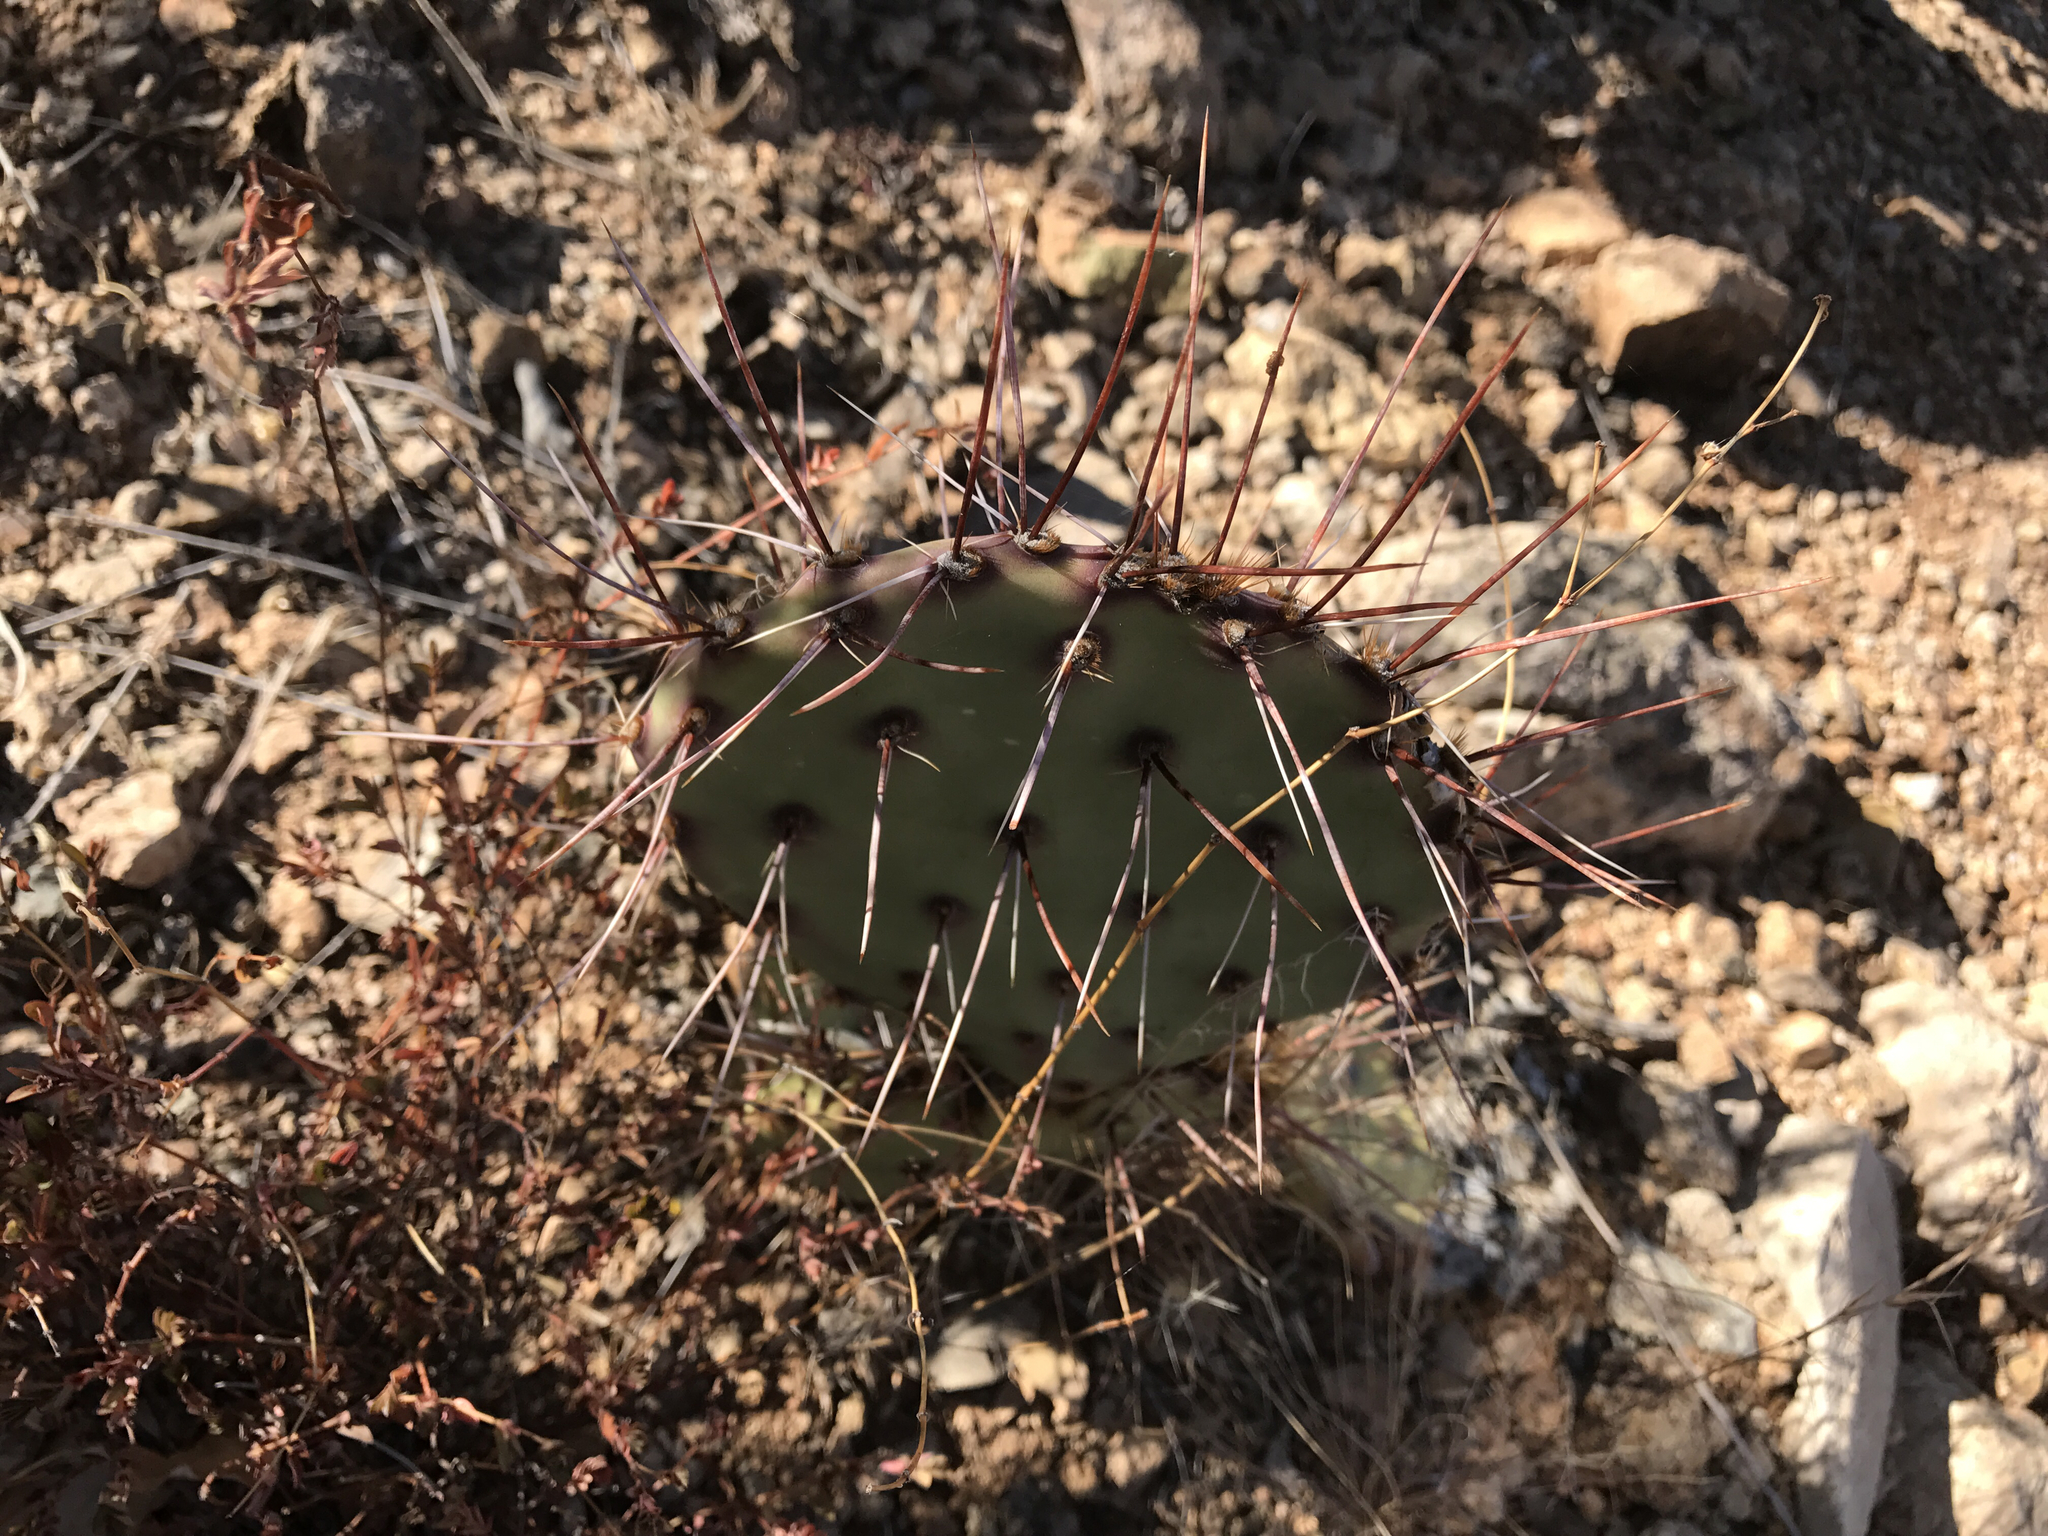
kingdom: Plantae
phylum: Tracheophyta
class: Magnoliopsida
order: Caryophyllales
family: Cactaceae
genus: Opuntia
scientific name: Opuntia phaeacantha
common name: New mexico prickly-pear
